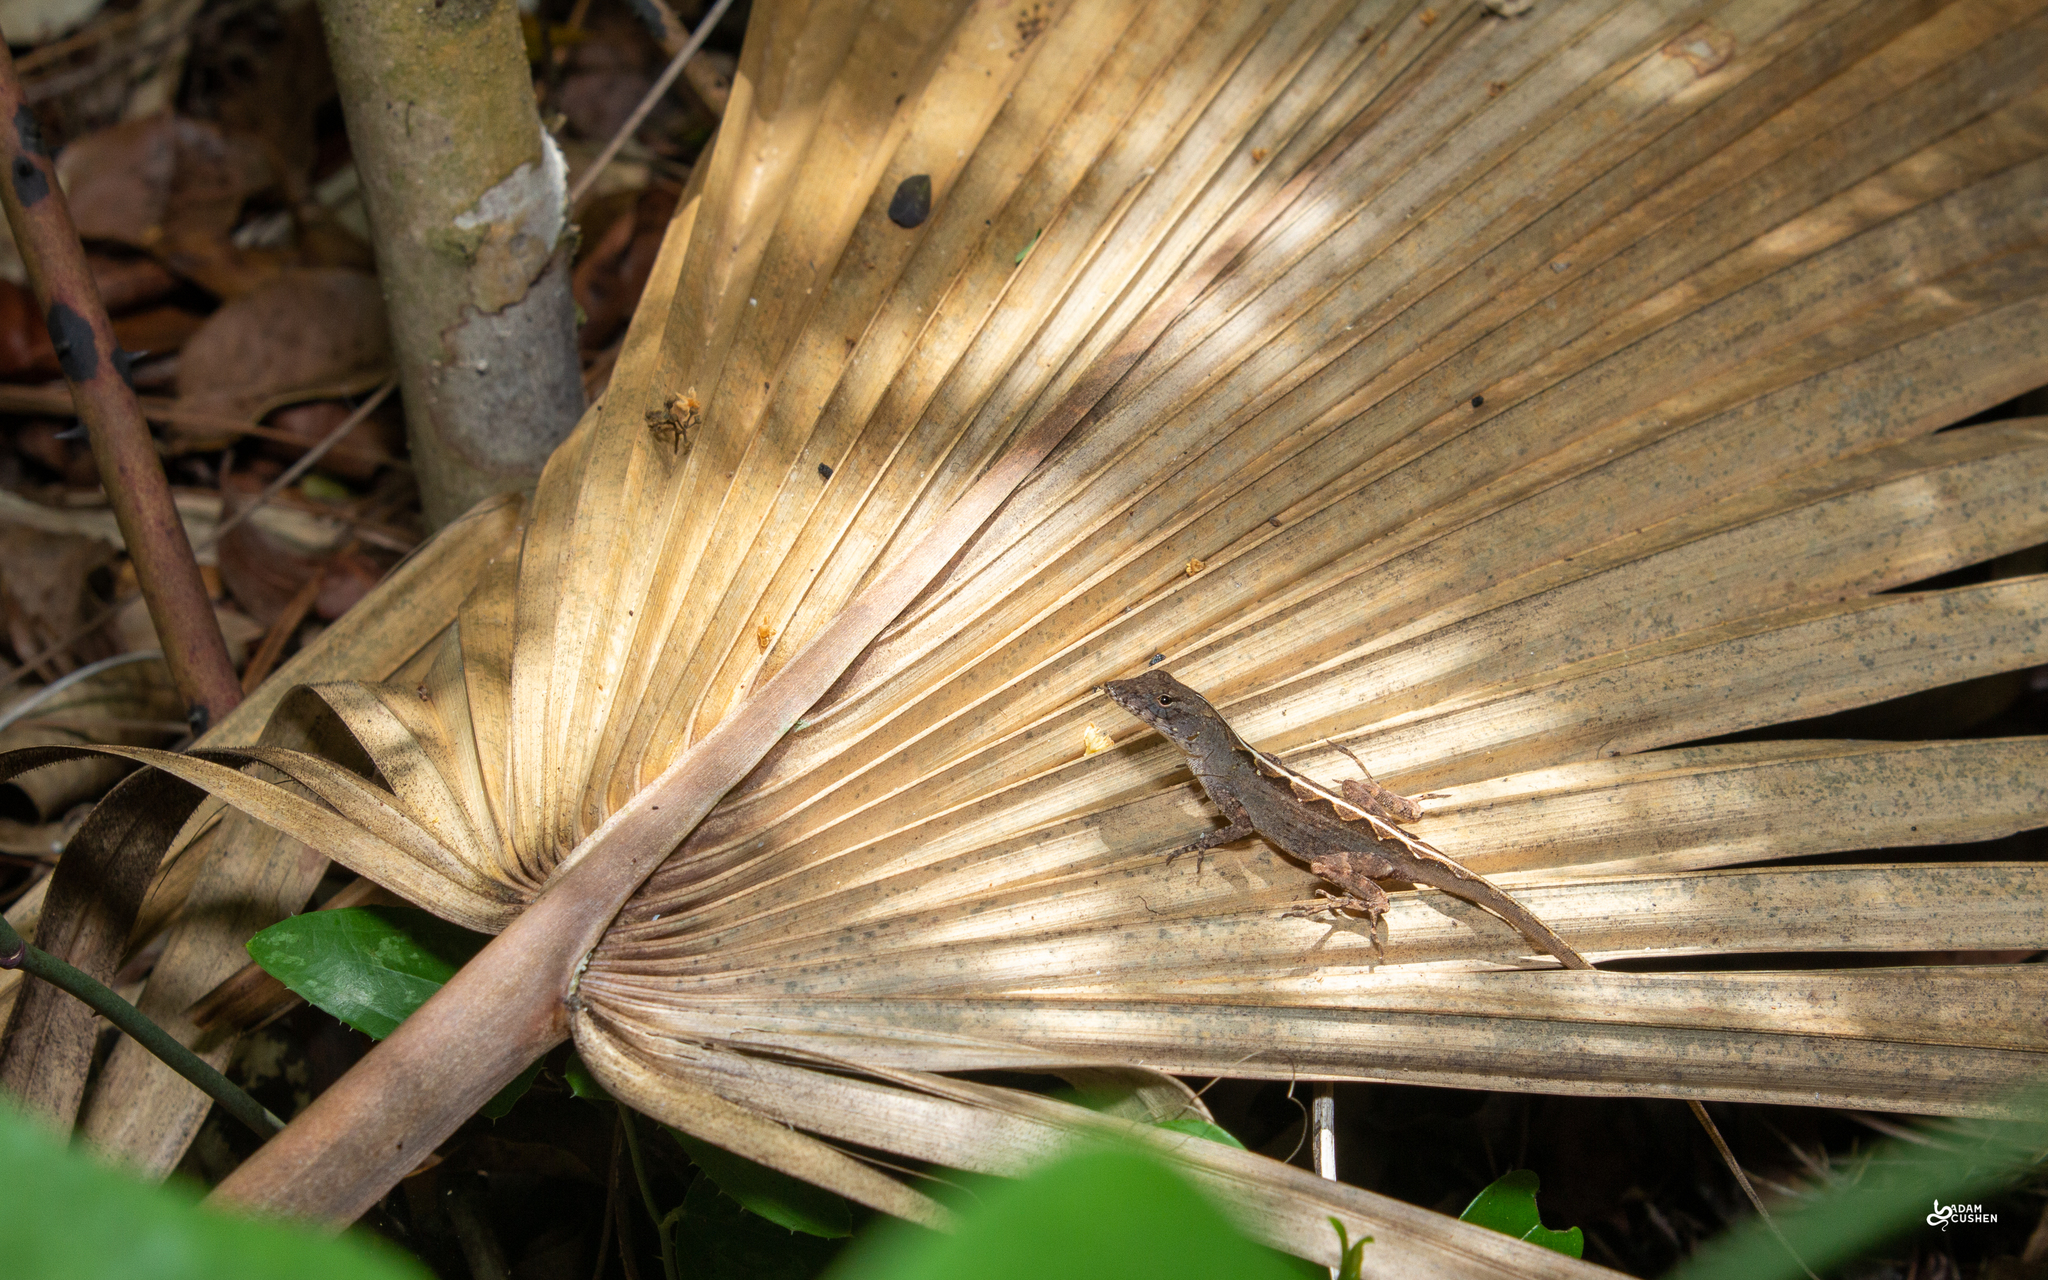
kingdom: Animalia
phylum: Chordata
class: Squamata
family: Dactyloidae
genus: Anolis
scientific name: Anolis sagrei
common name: Brown anole
